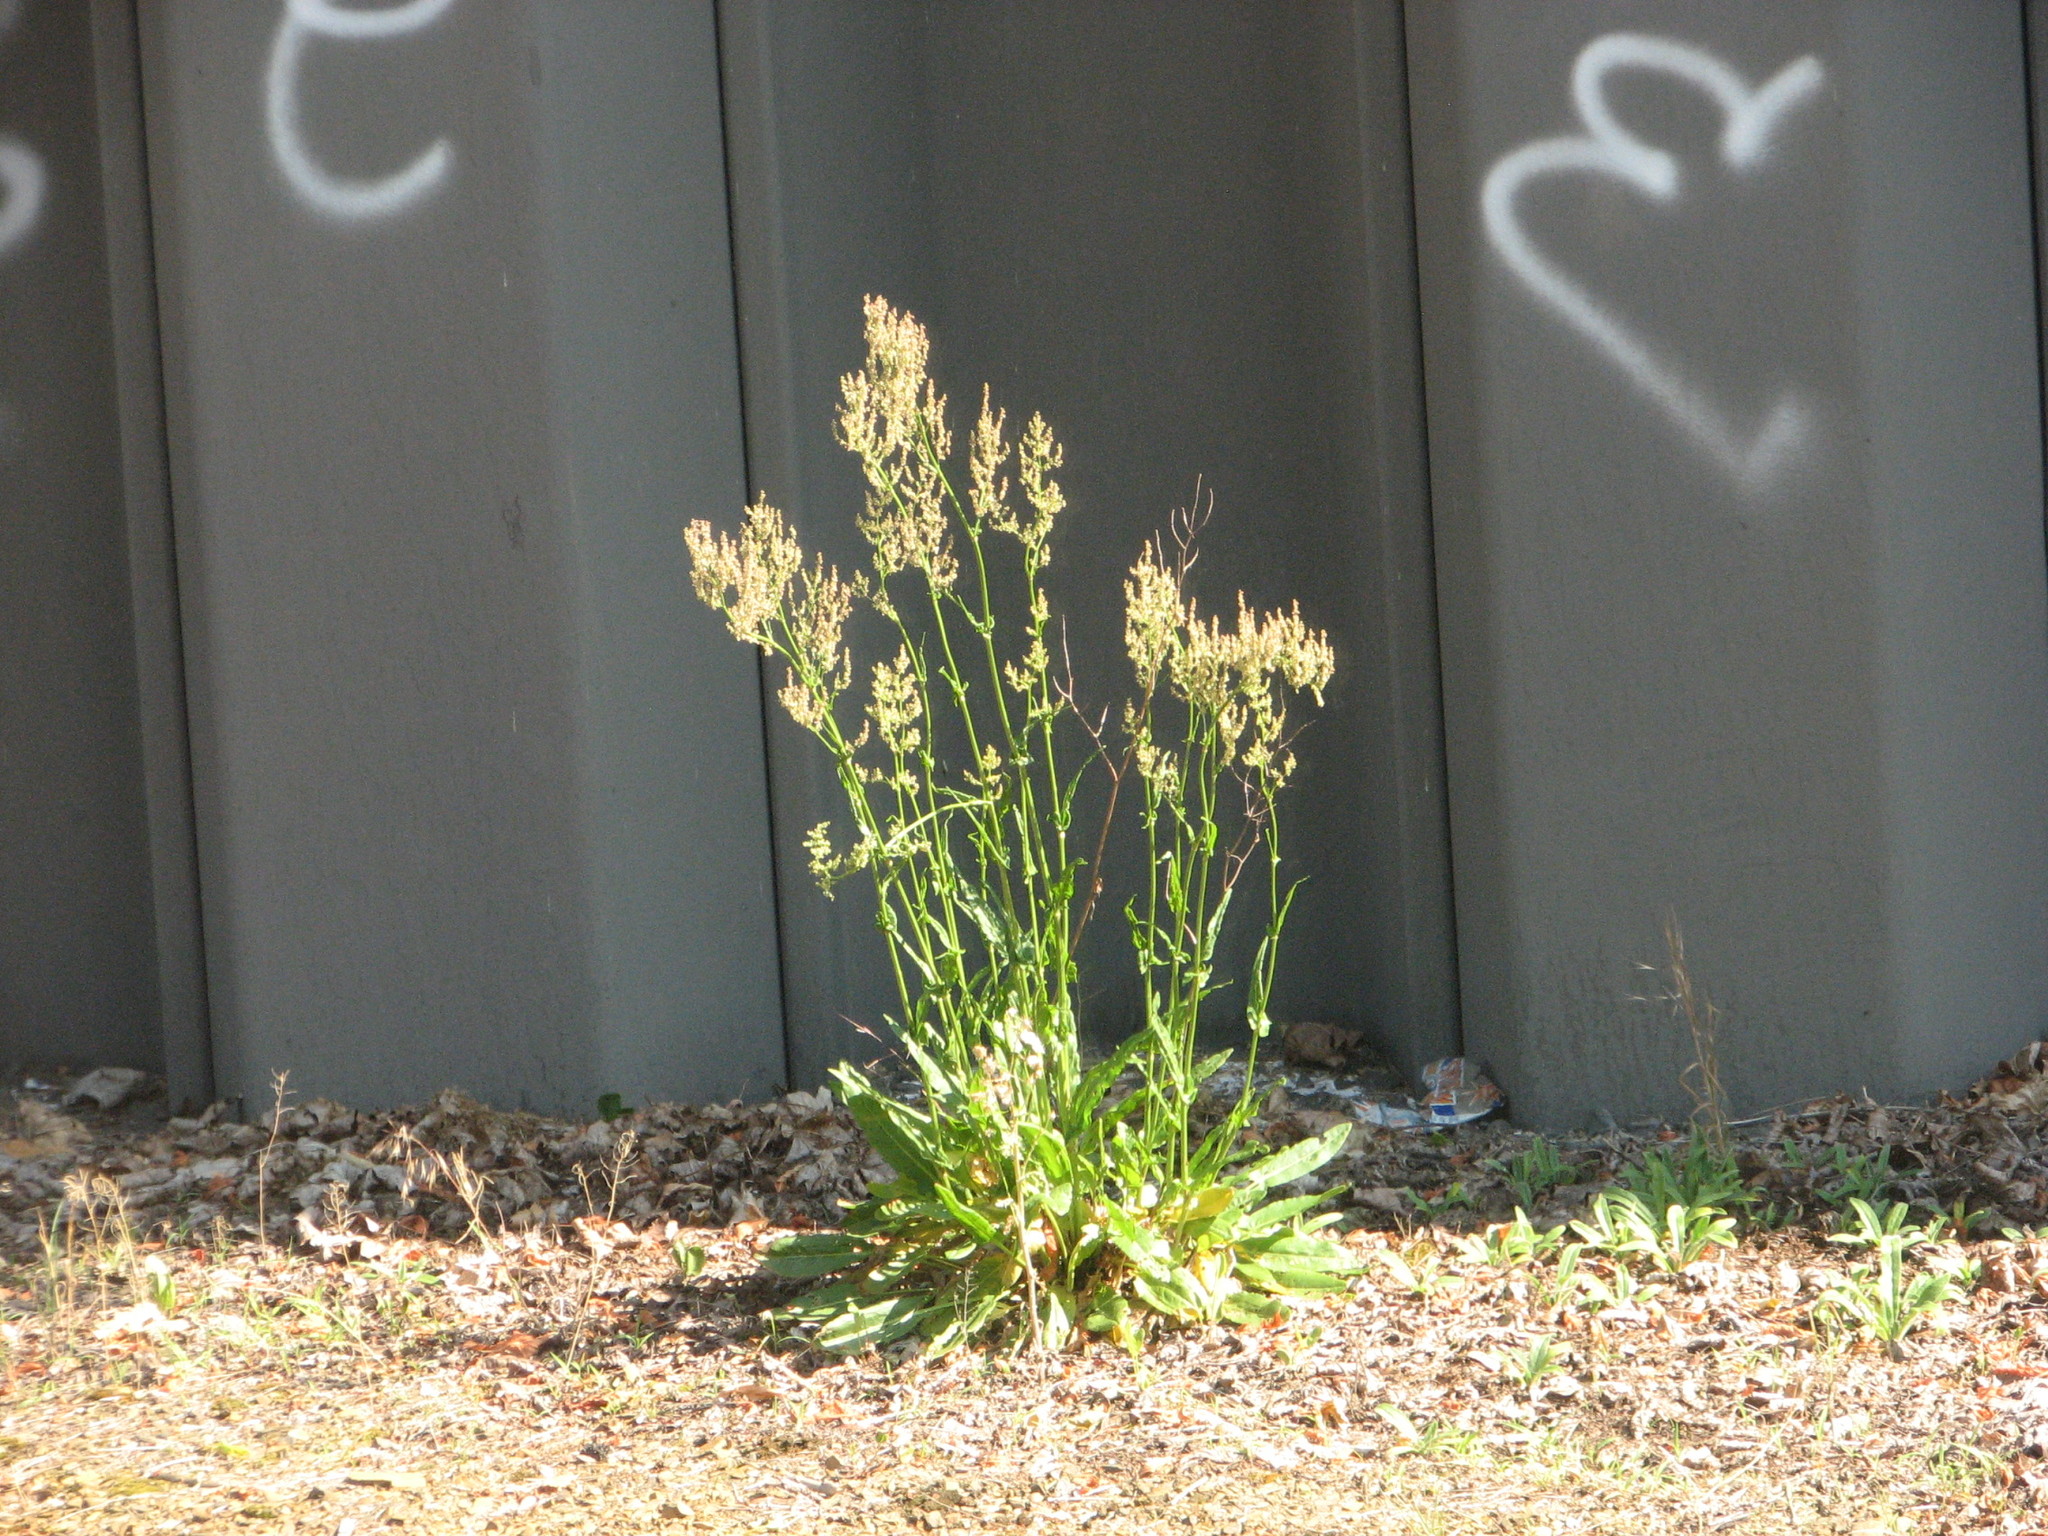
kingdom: Plantae
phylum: Tracheophyta
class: Magnoliopsida
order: Caryophyllales
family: Polygonaceae
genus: Rumex
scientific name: Rumex acetosa
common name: Garden sorrel
